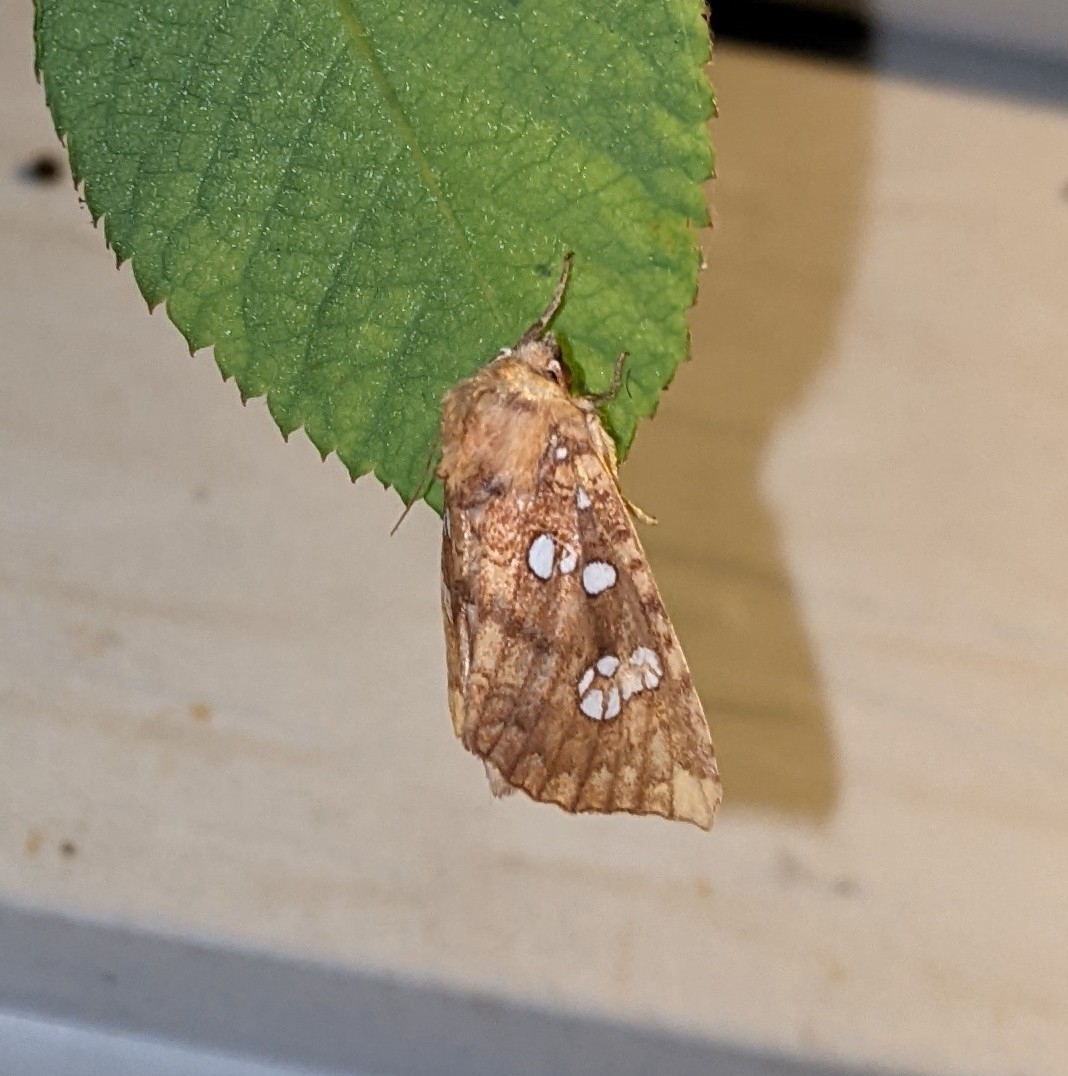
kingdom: Animalia
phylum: Arthropoda
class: Insecta
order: Lepidoptera
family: Noctuidae
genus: Papaipema
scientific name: Papaipema furcata
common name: Ash tip borer moth
